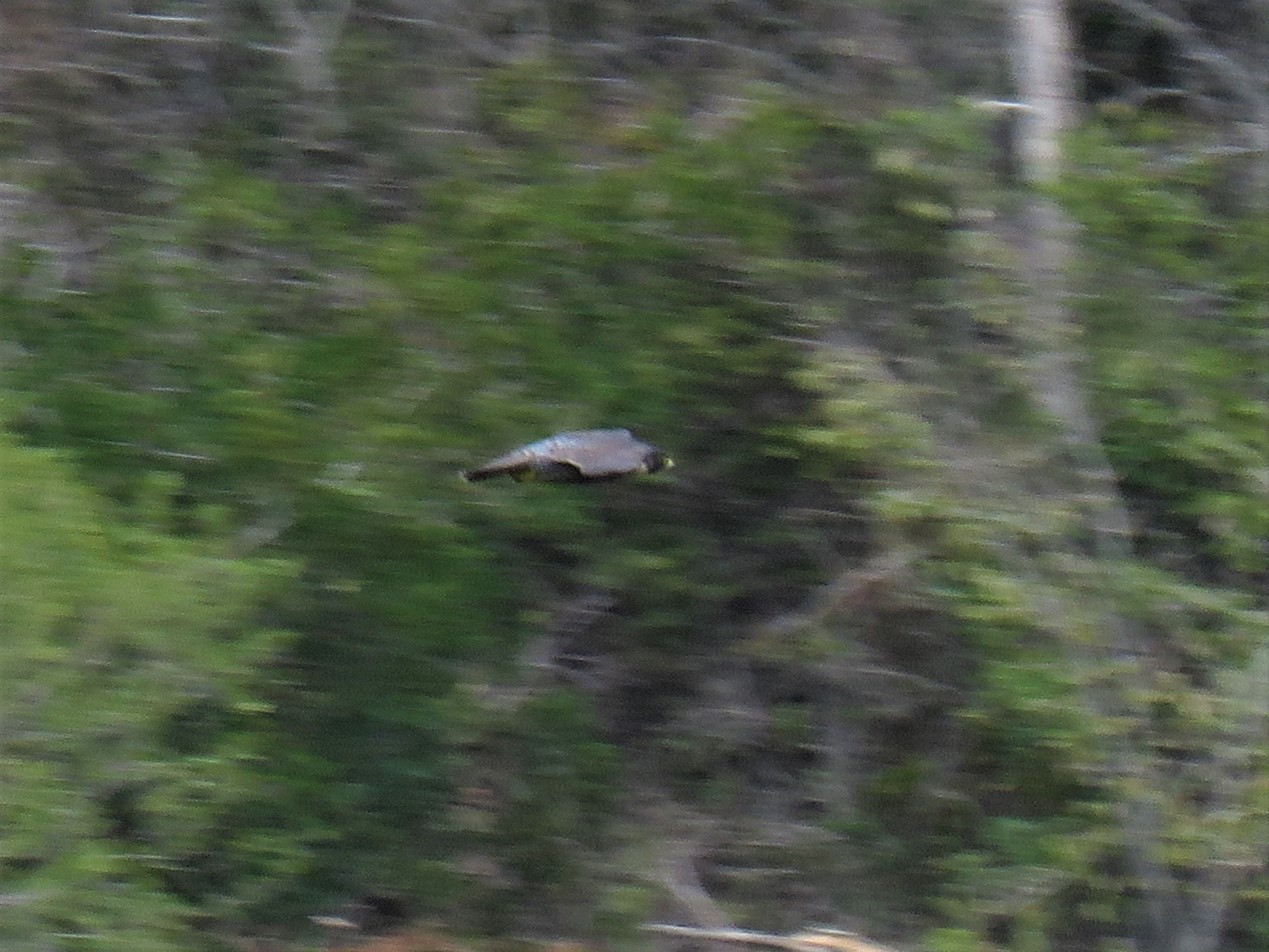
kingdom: Animalia
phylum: Chordata
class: Aves
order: Falconiformes
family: Falconidae
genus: Falco
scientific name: Falco peregrinus
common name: Peregrine falcon
